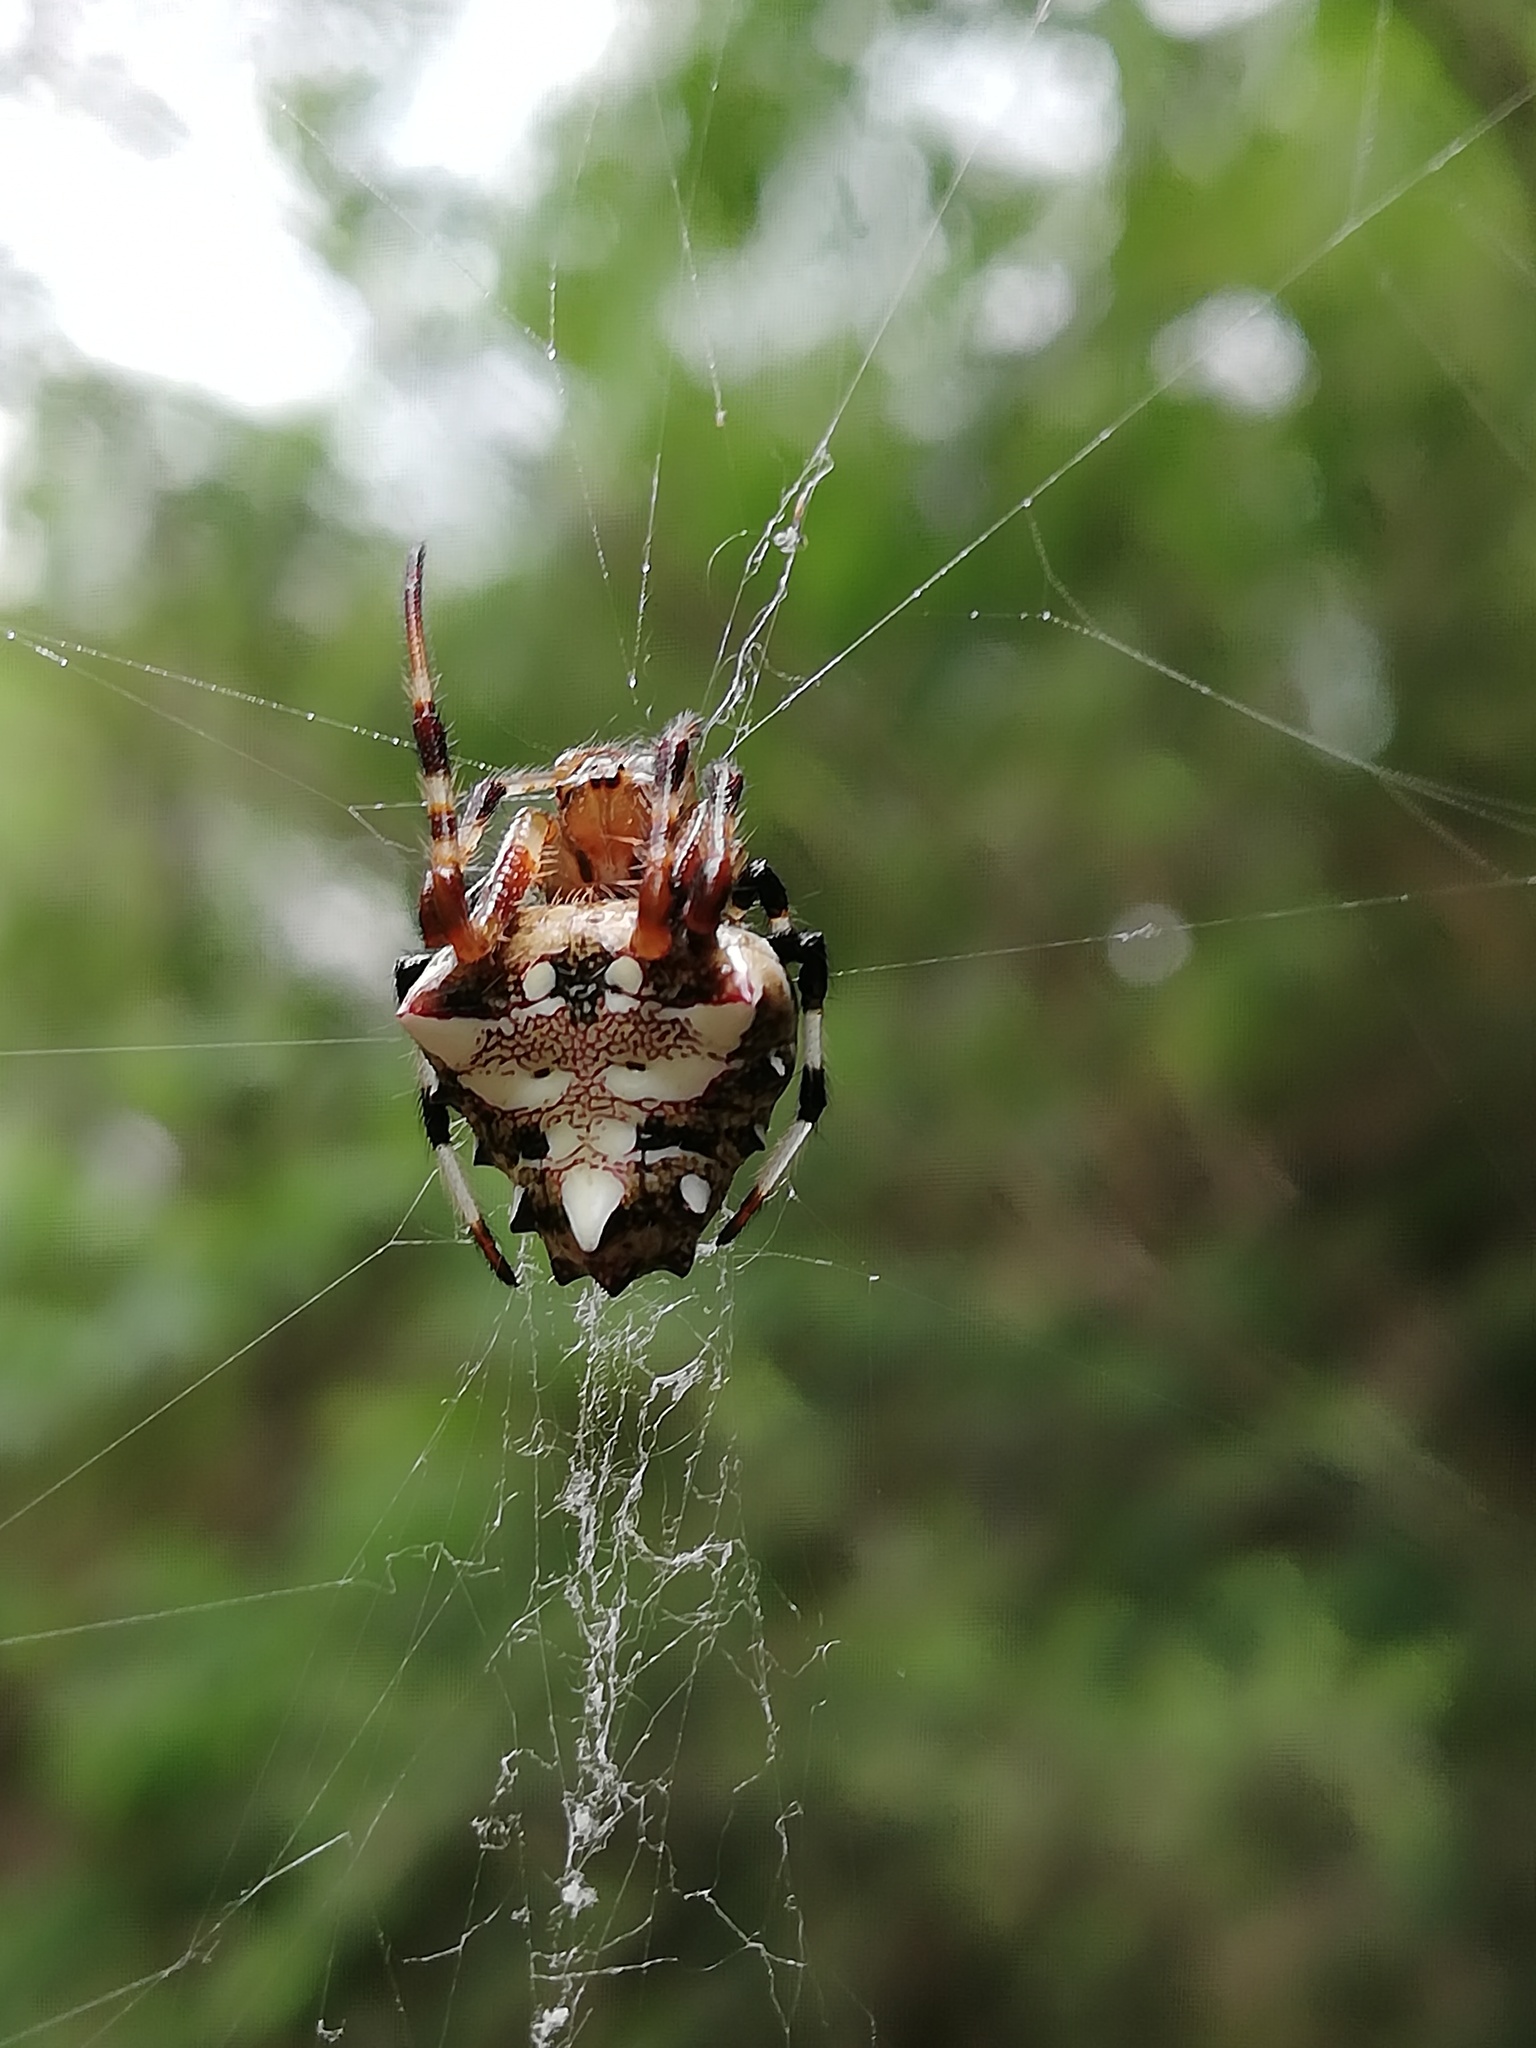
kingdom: Animalia
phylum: Arthropoda
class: Arachnida
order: Araneae
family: Araneidae
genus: Verrucosa
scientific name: Verrucosa arenata
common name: Orb weavers
